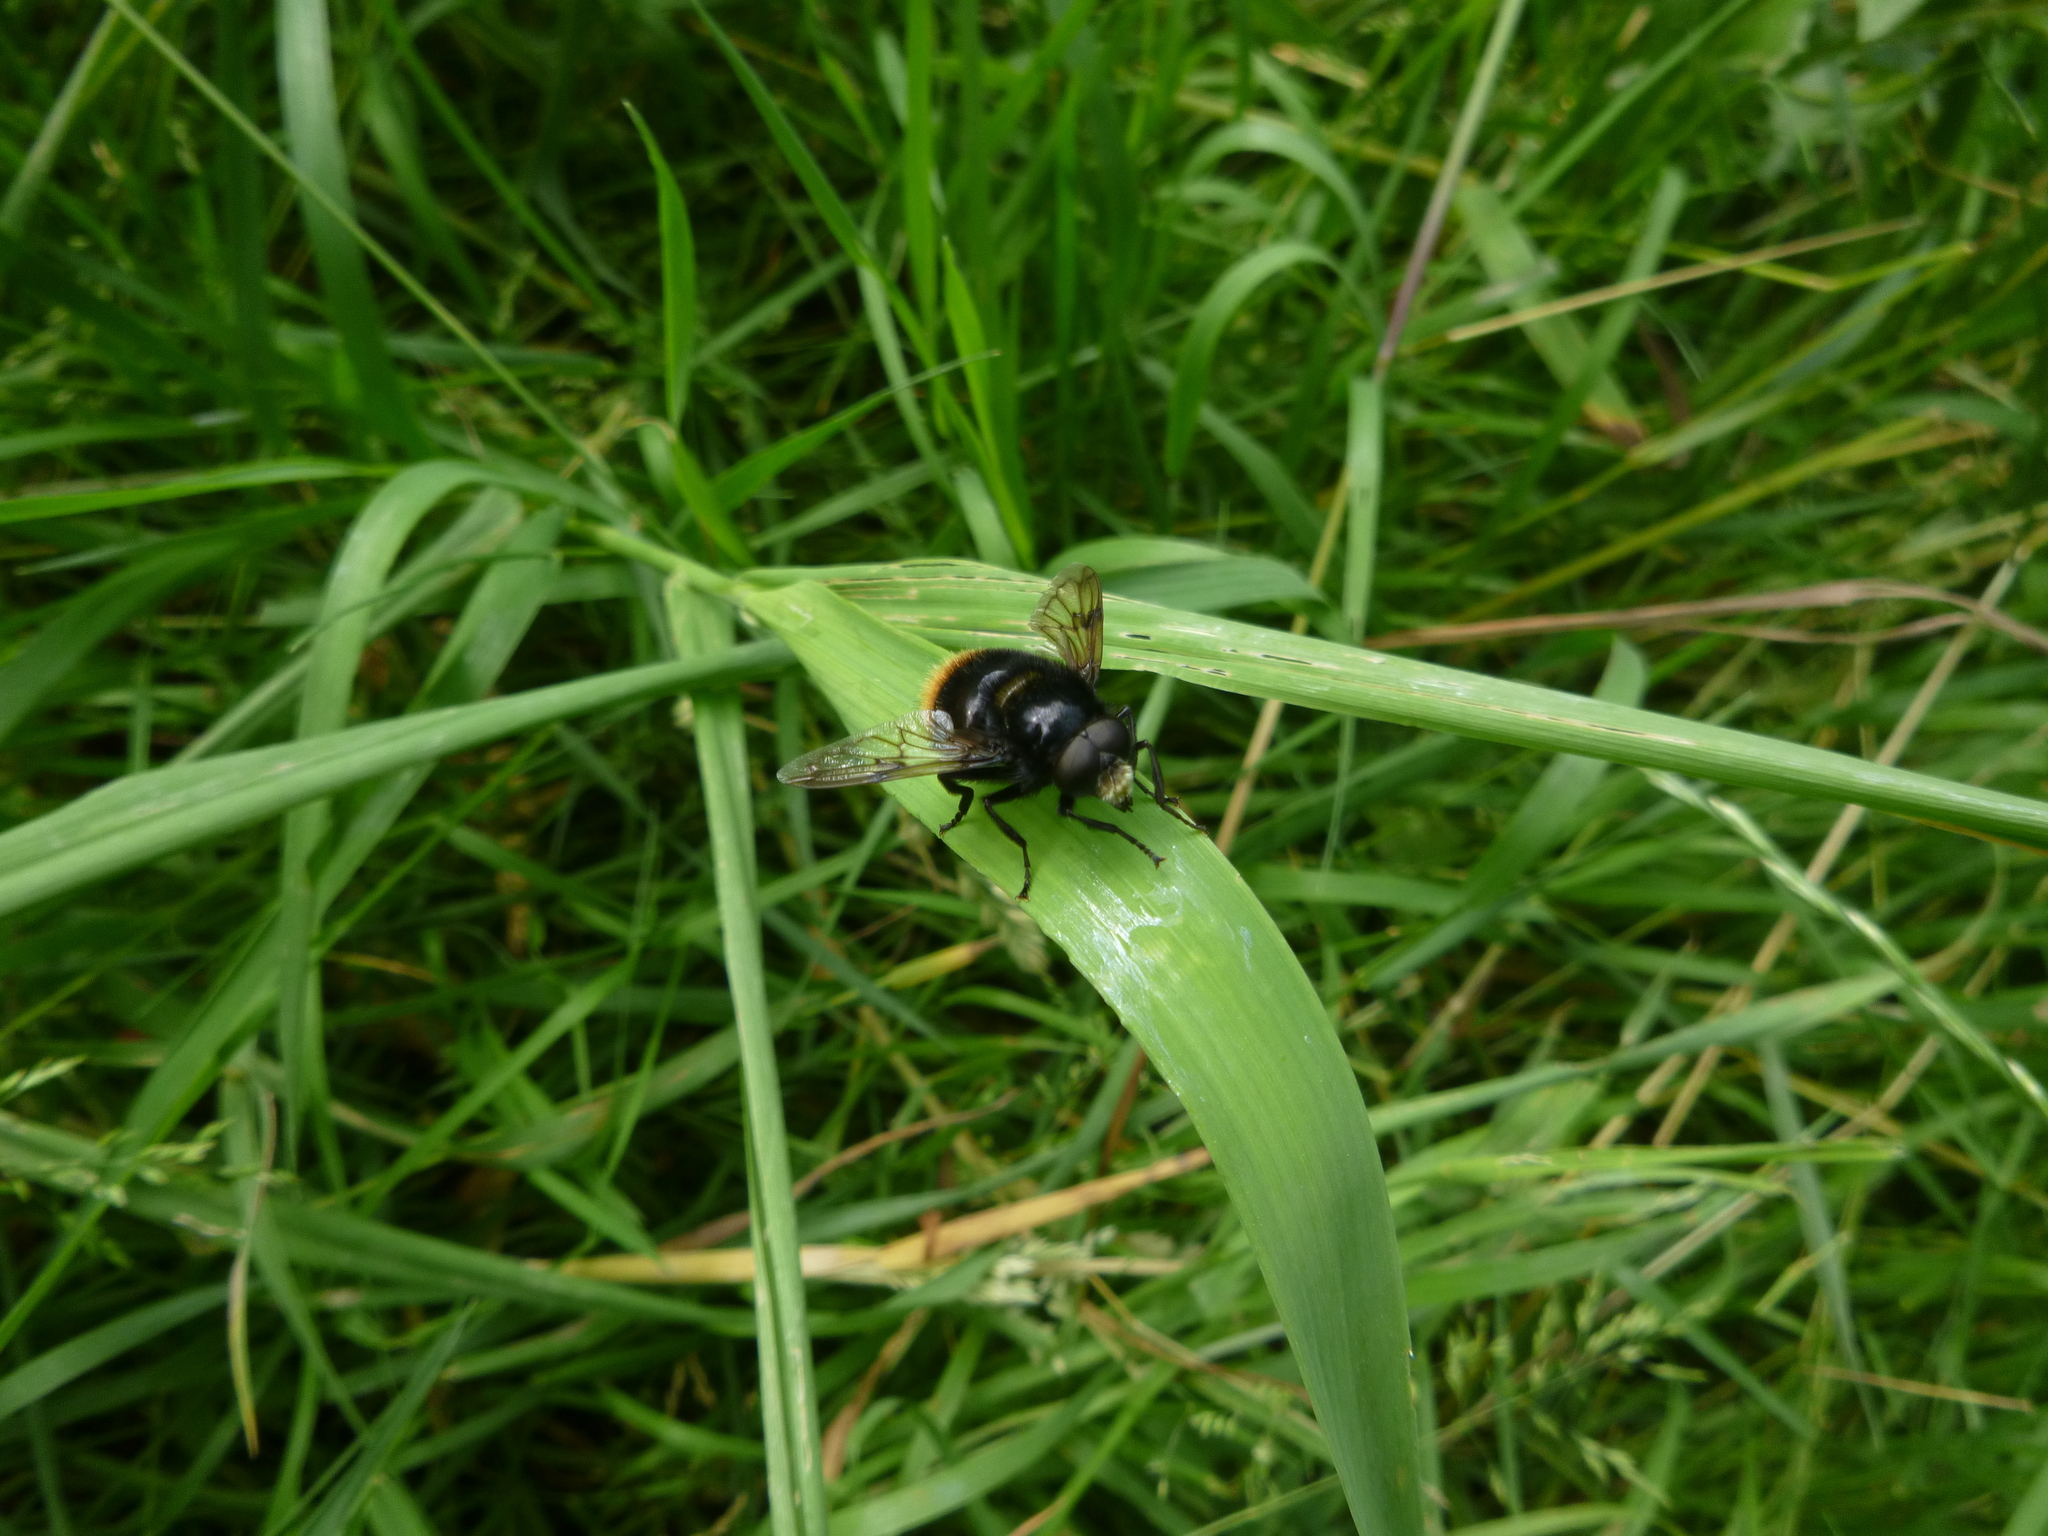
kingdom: Animalia
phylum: Arthropoda
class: Insecta
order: Diptera
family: Syrphidae
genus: Volucella
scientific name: Volucella bombylans
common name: Bumble bee hover fly
